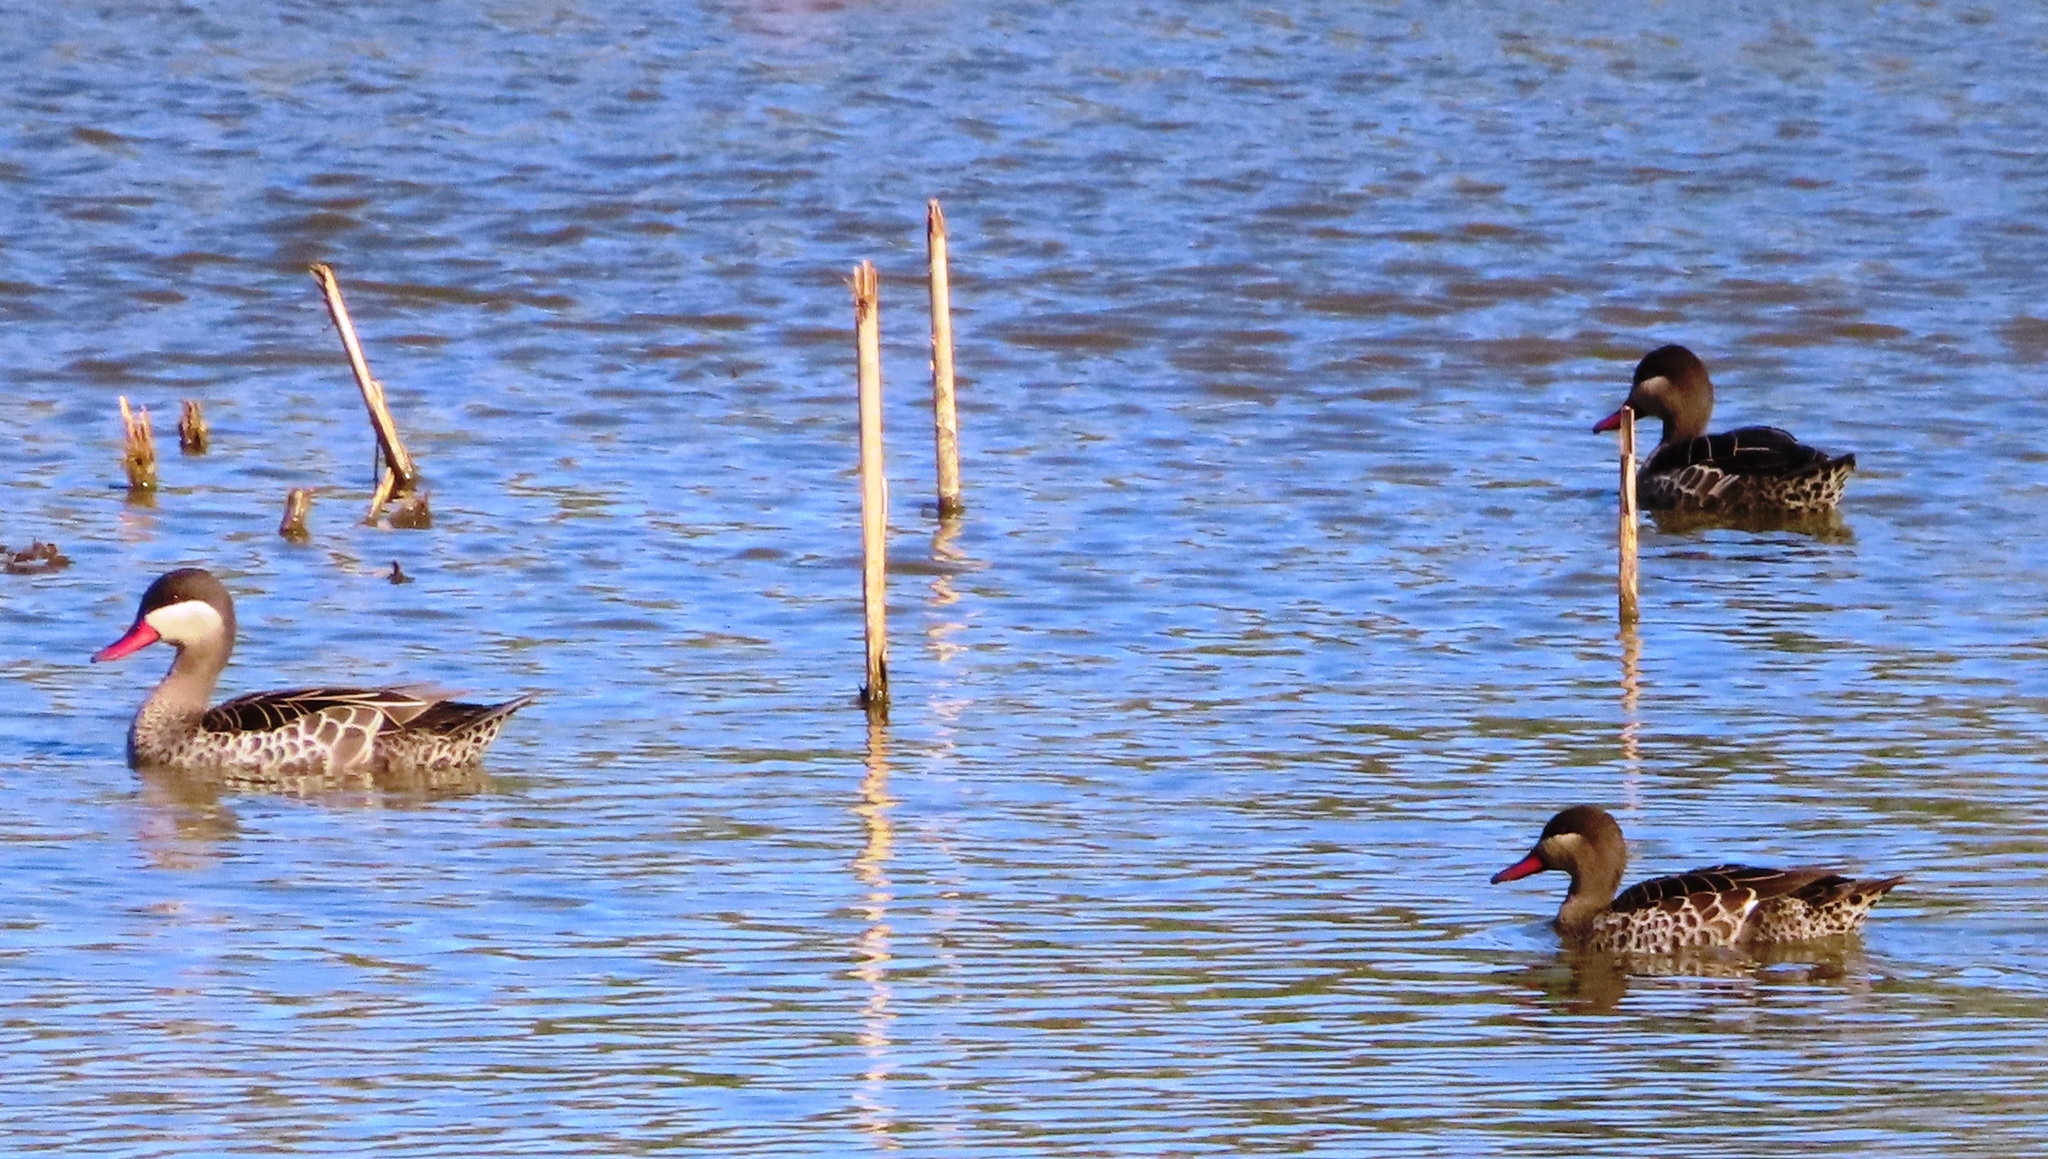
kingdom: Animalia
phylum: Chordata
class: Aves
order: Anseriformes
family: Anatidae
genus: Anas
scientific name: Anas erythrorhyncha
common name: Red-billed teal
